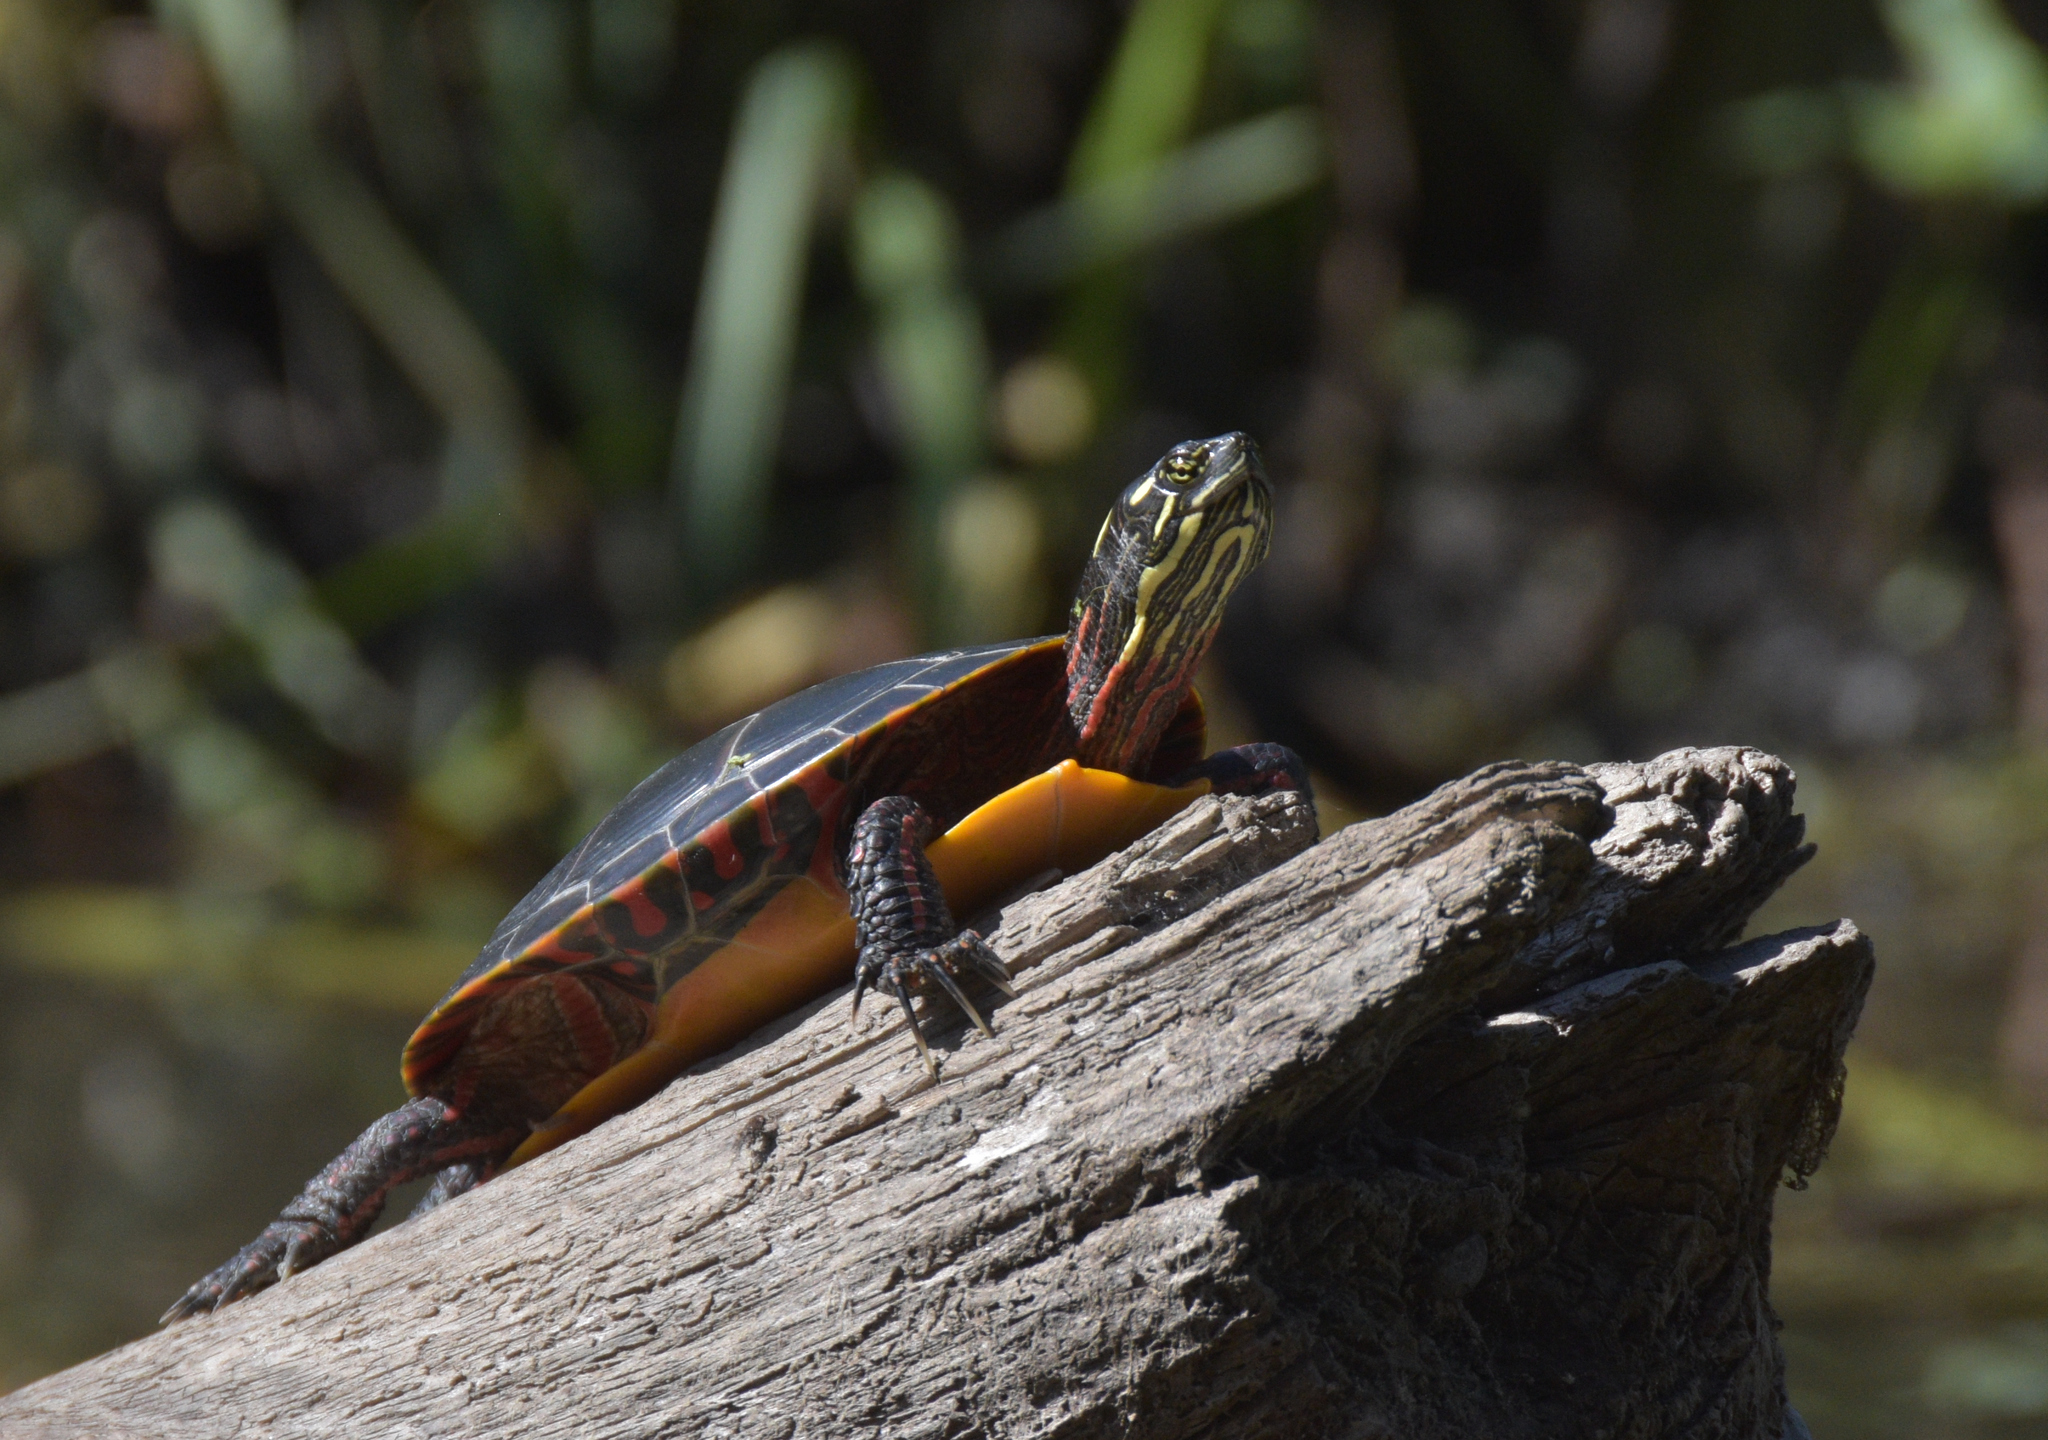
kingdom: Animalia
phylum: Chordata
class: Testudines
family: Emydidae
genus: Chrysemys
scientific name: Chrysemys picta
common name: Painted turtle
